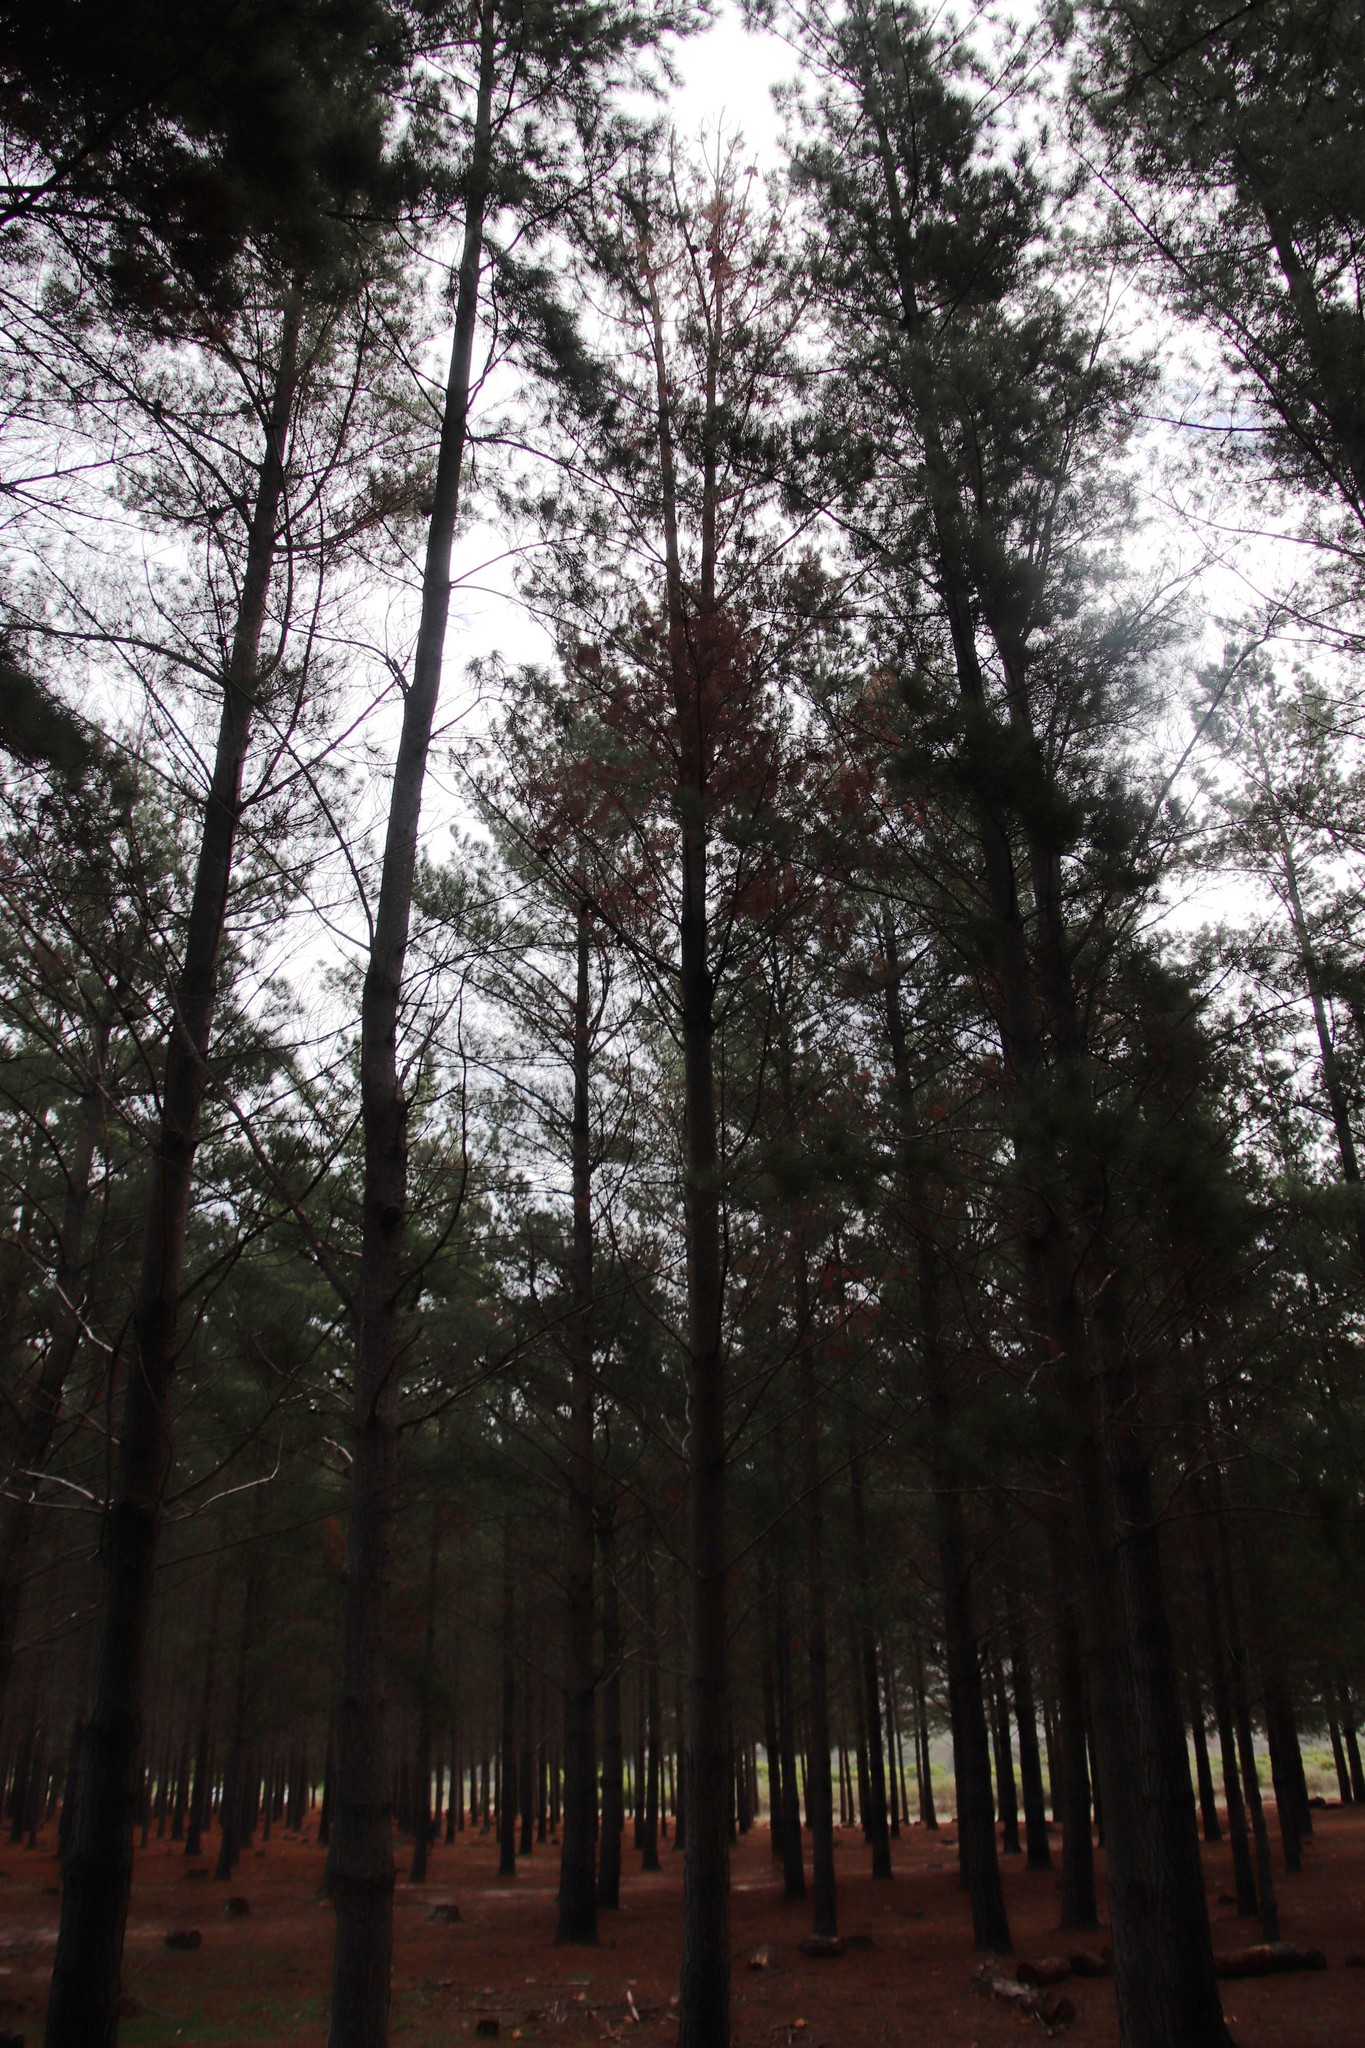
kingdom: Plantae
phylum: Tracheophyta
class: Pinopsida
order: Pinales
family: Pinaceae
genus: Pinus
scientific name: Pinus radiata
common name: Monterey pine
